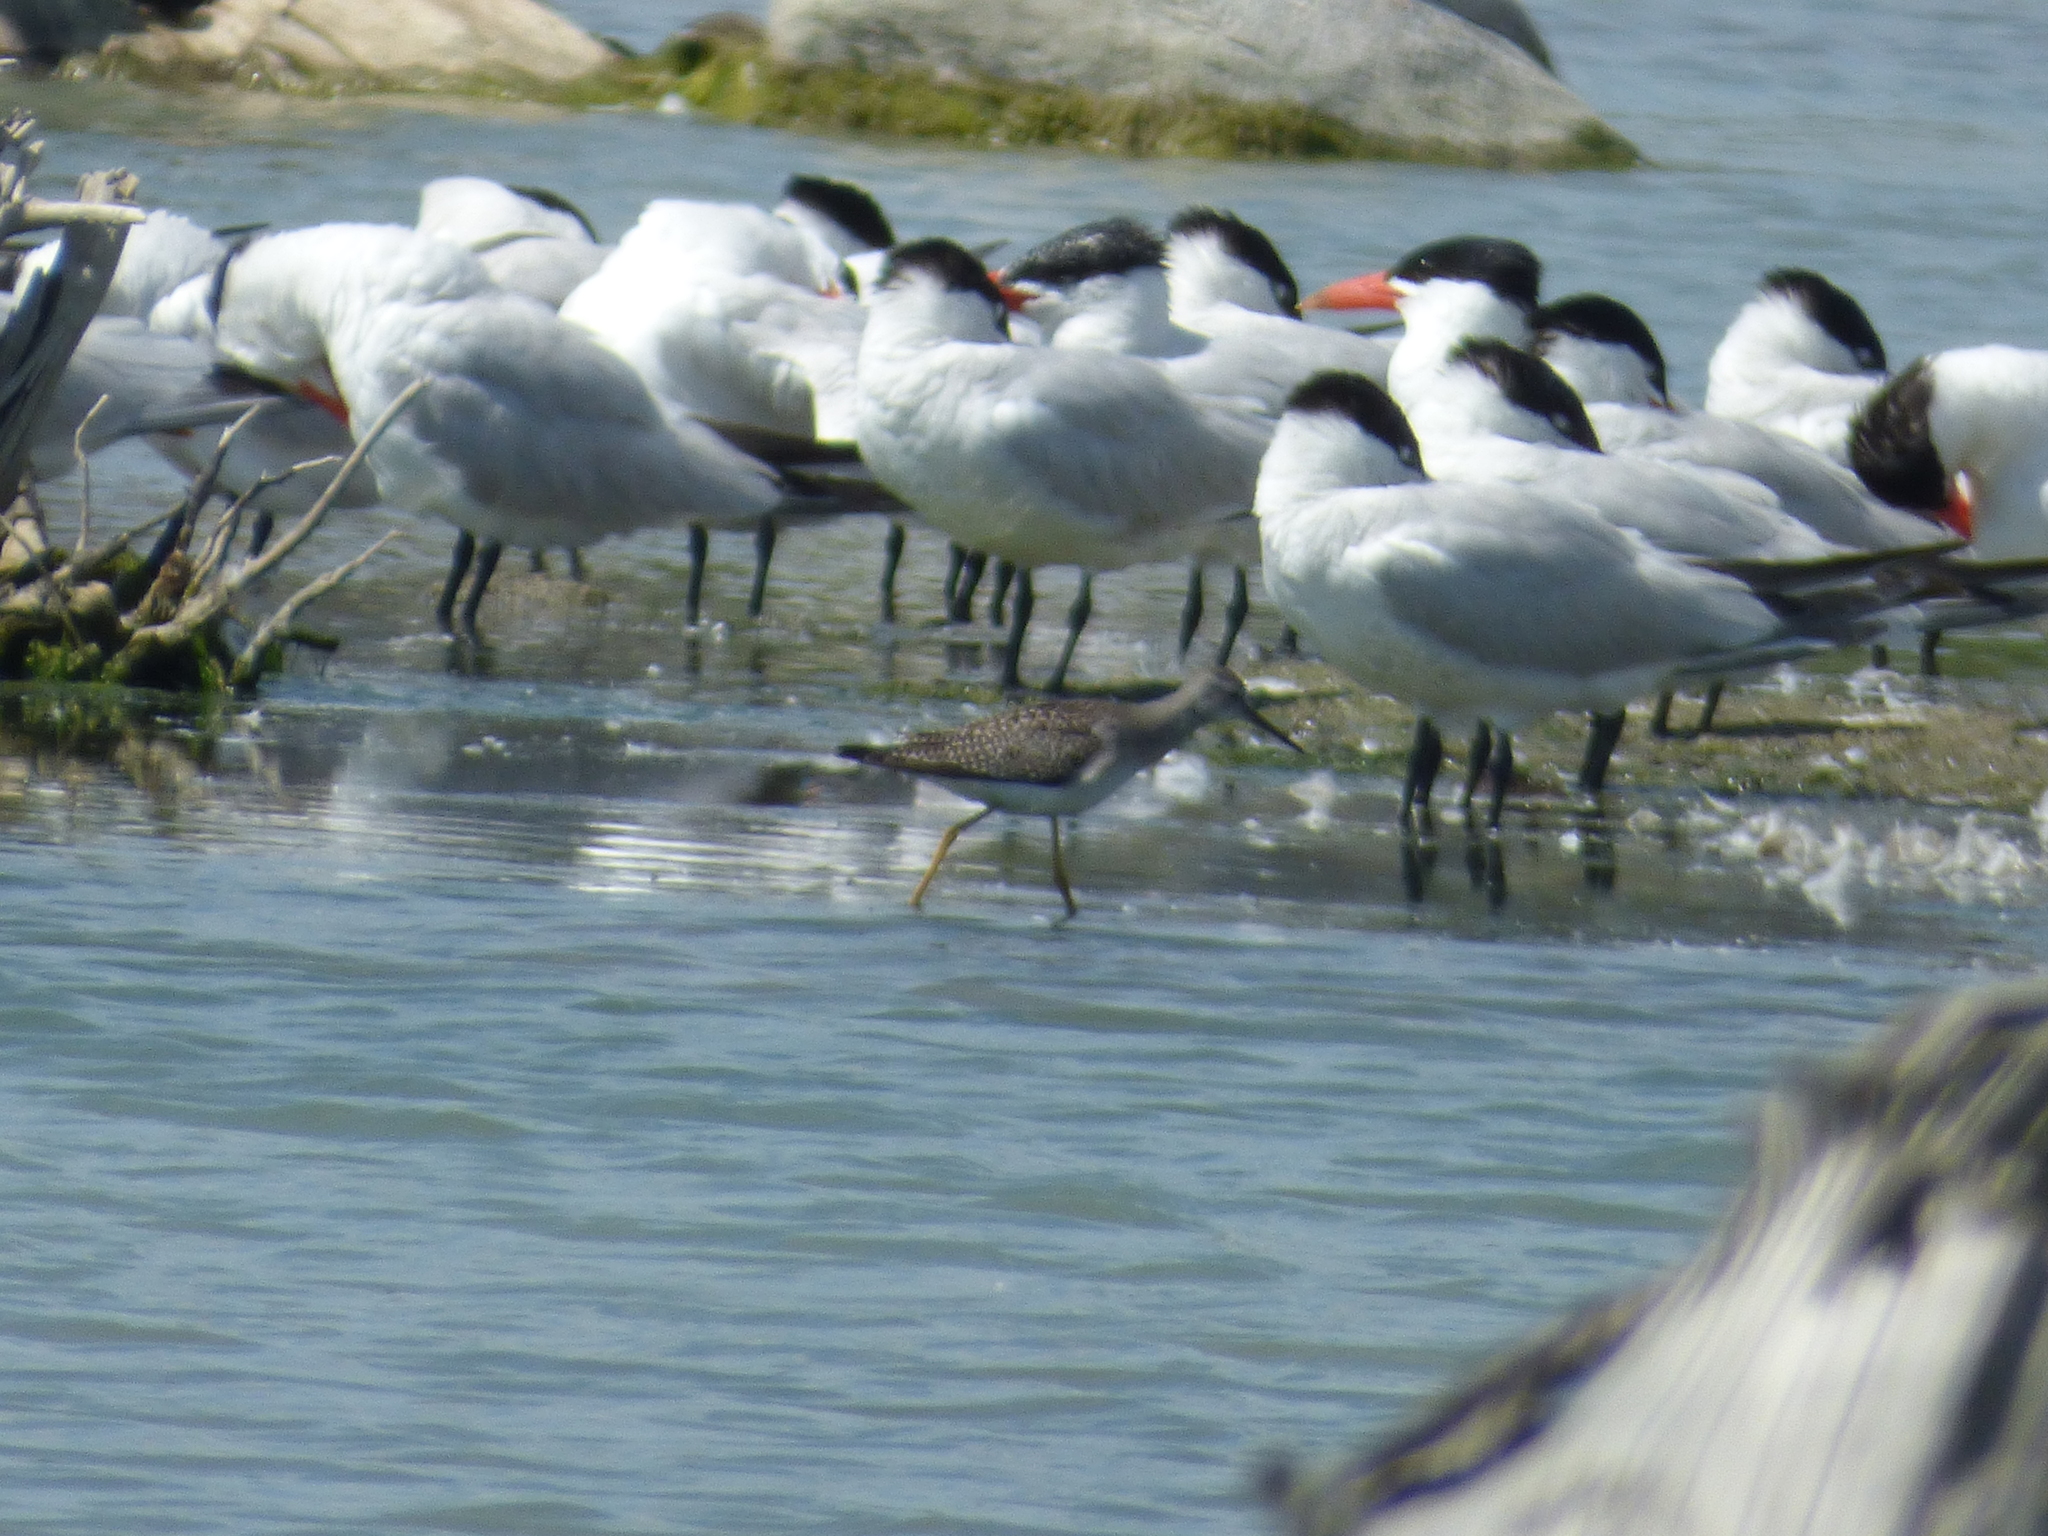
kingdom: Animalia
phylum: Chordata
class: Aves
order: Charadriiformes
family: Scolopacidae
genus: Tringa
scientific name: Tringa melanoleuca
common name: Greater yellowlegs
